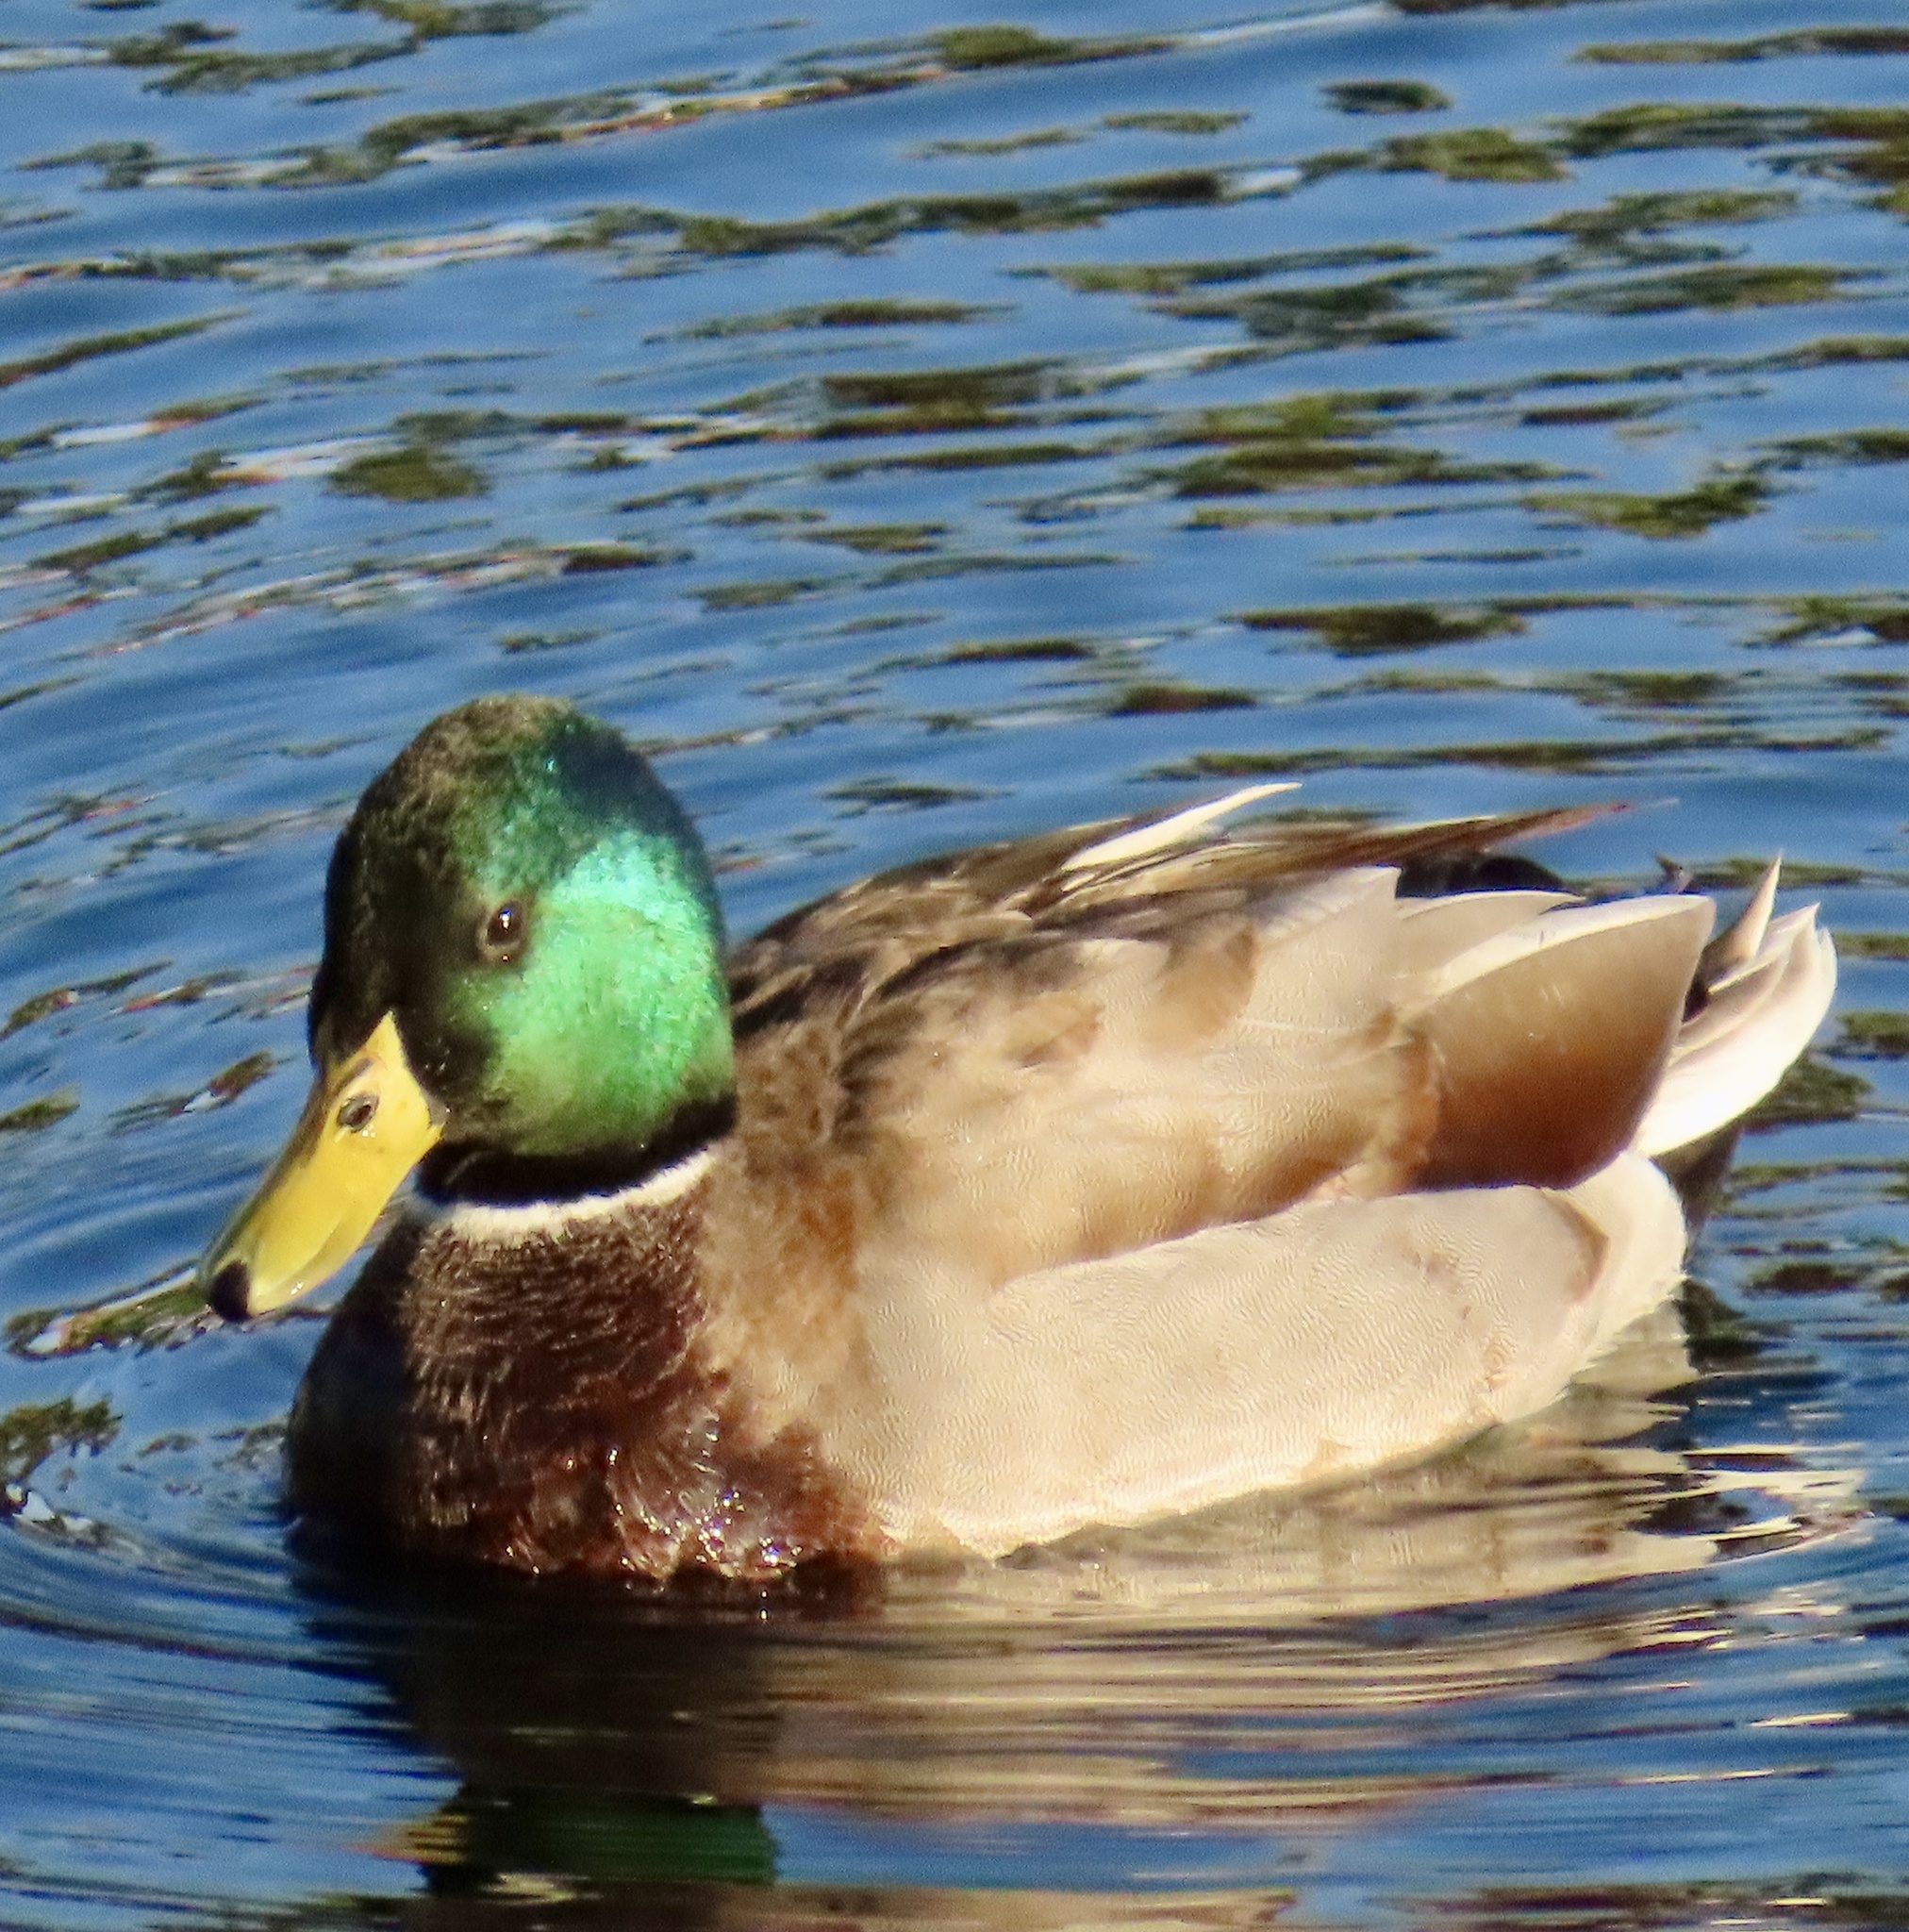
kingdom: Animalia
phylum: Chordata
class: Aves
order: Anseriformes
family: Anatidae
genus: Anas
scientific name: Anas platyrhynchos
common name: Mallard
